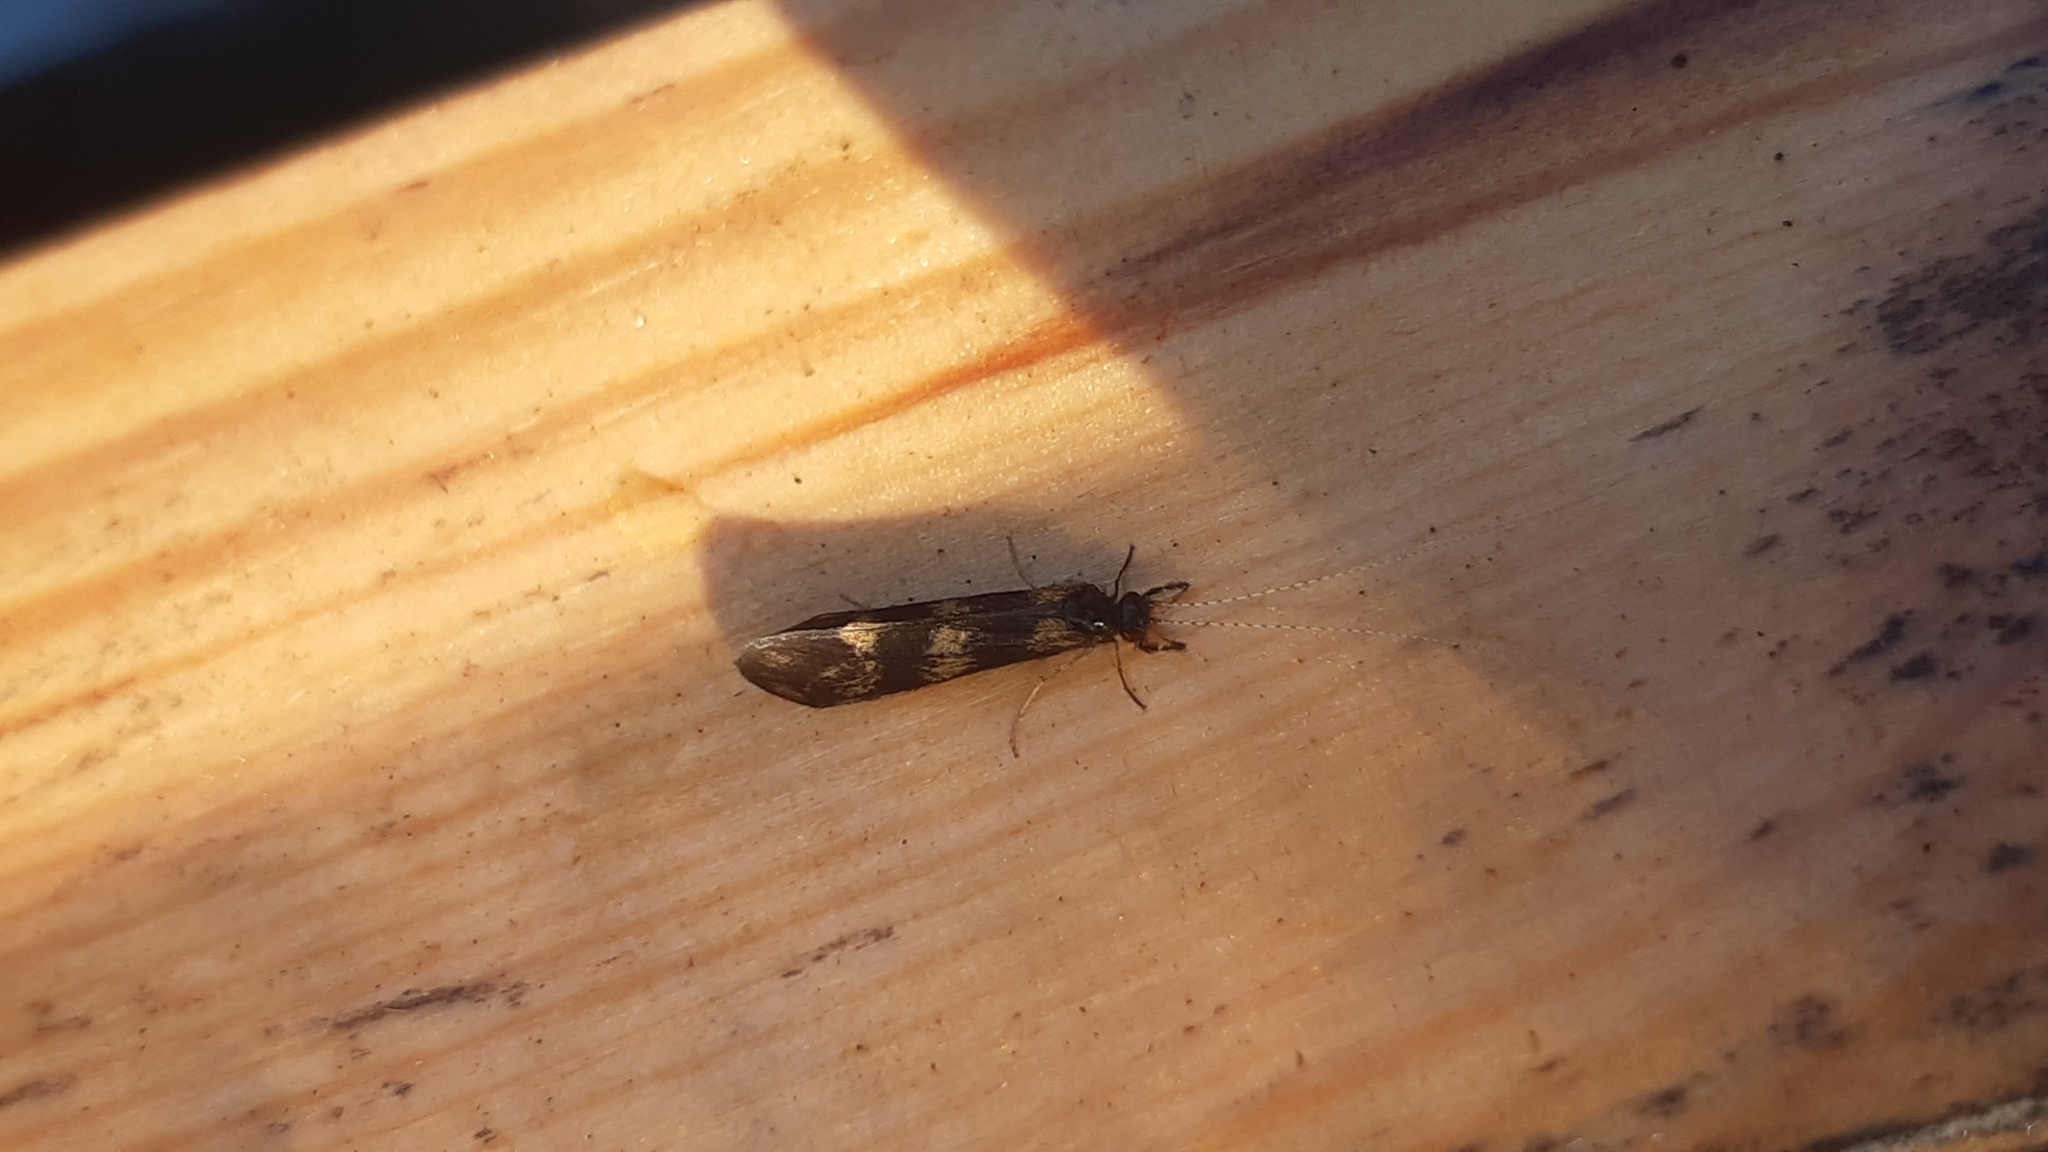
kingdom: Animalia
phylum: Arthropoda
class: Insecta
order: Trichoptera
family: Leptoceridae
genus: Mystacides
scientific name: Mystacides longicornis
